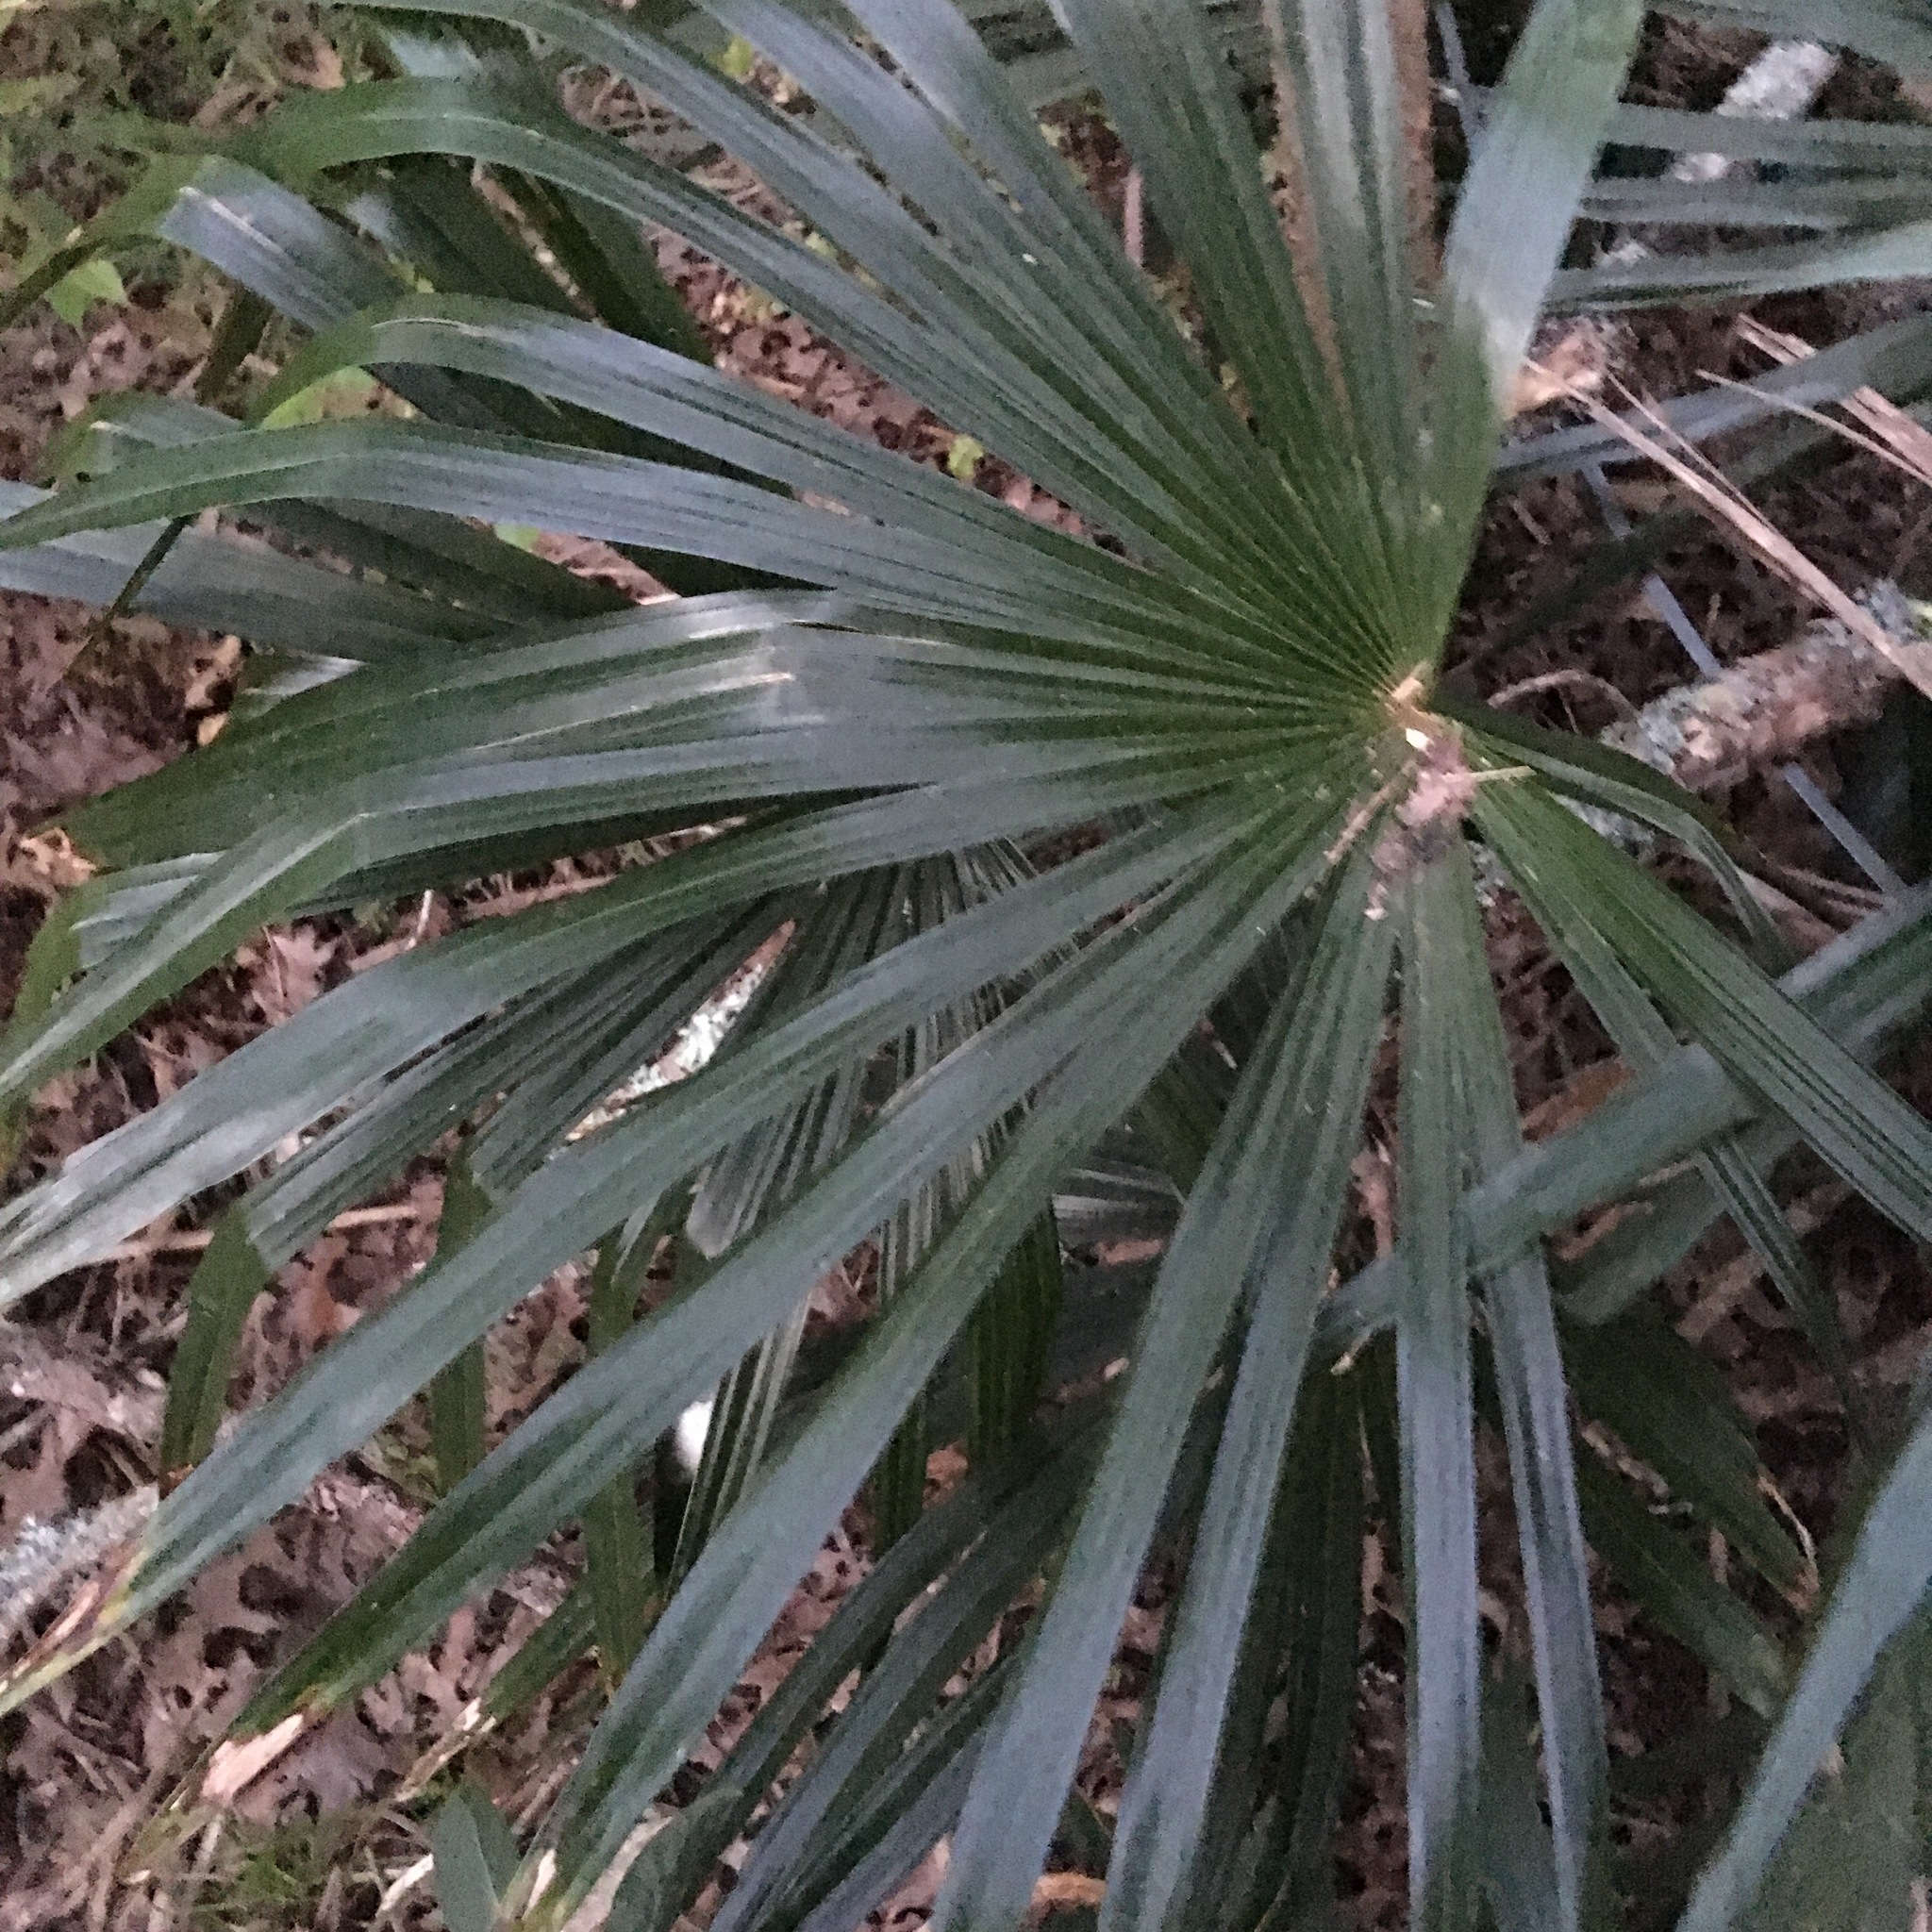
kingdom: Plantae
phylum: Tracheophyta
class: Liliopsida
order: Arecales
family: Arecaceae
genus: Trachycarpus
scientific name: Trachycarpus fortunei
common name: Chusan palm
